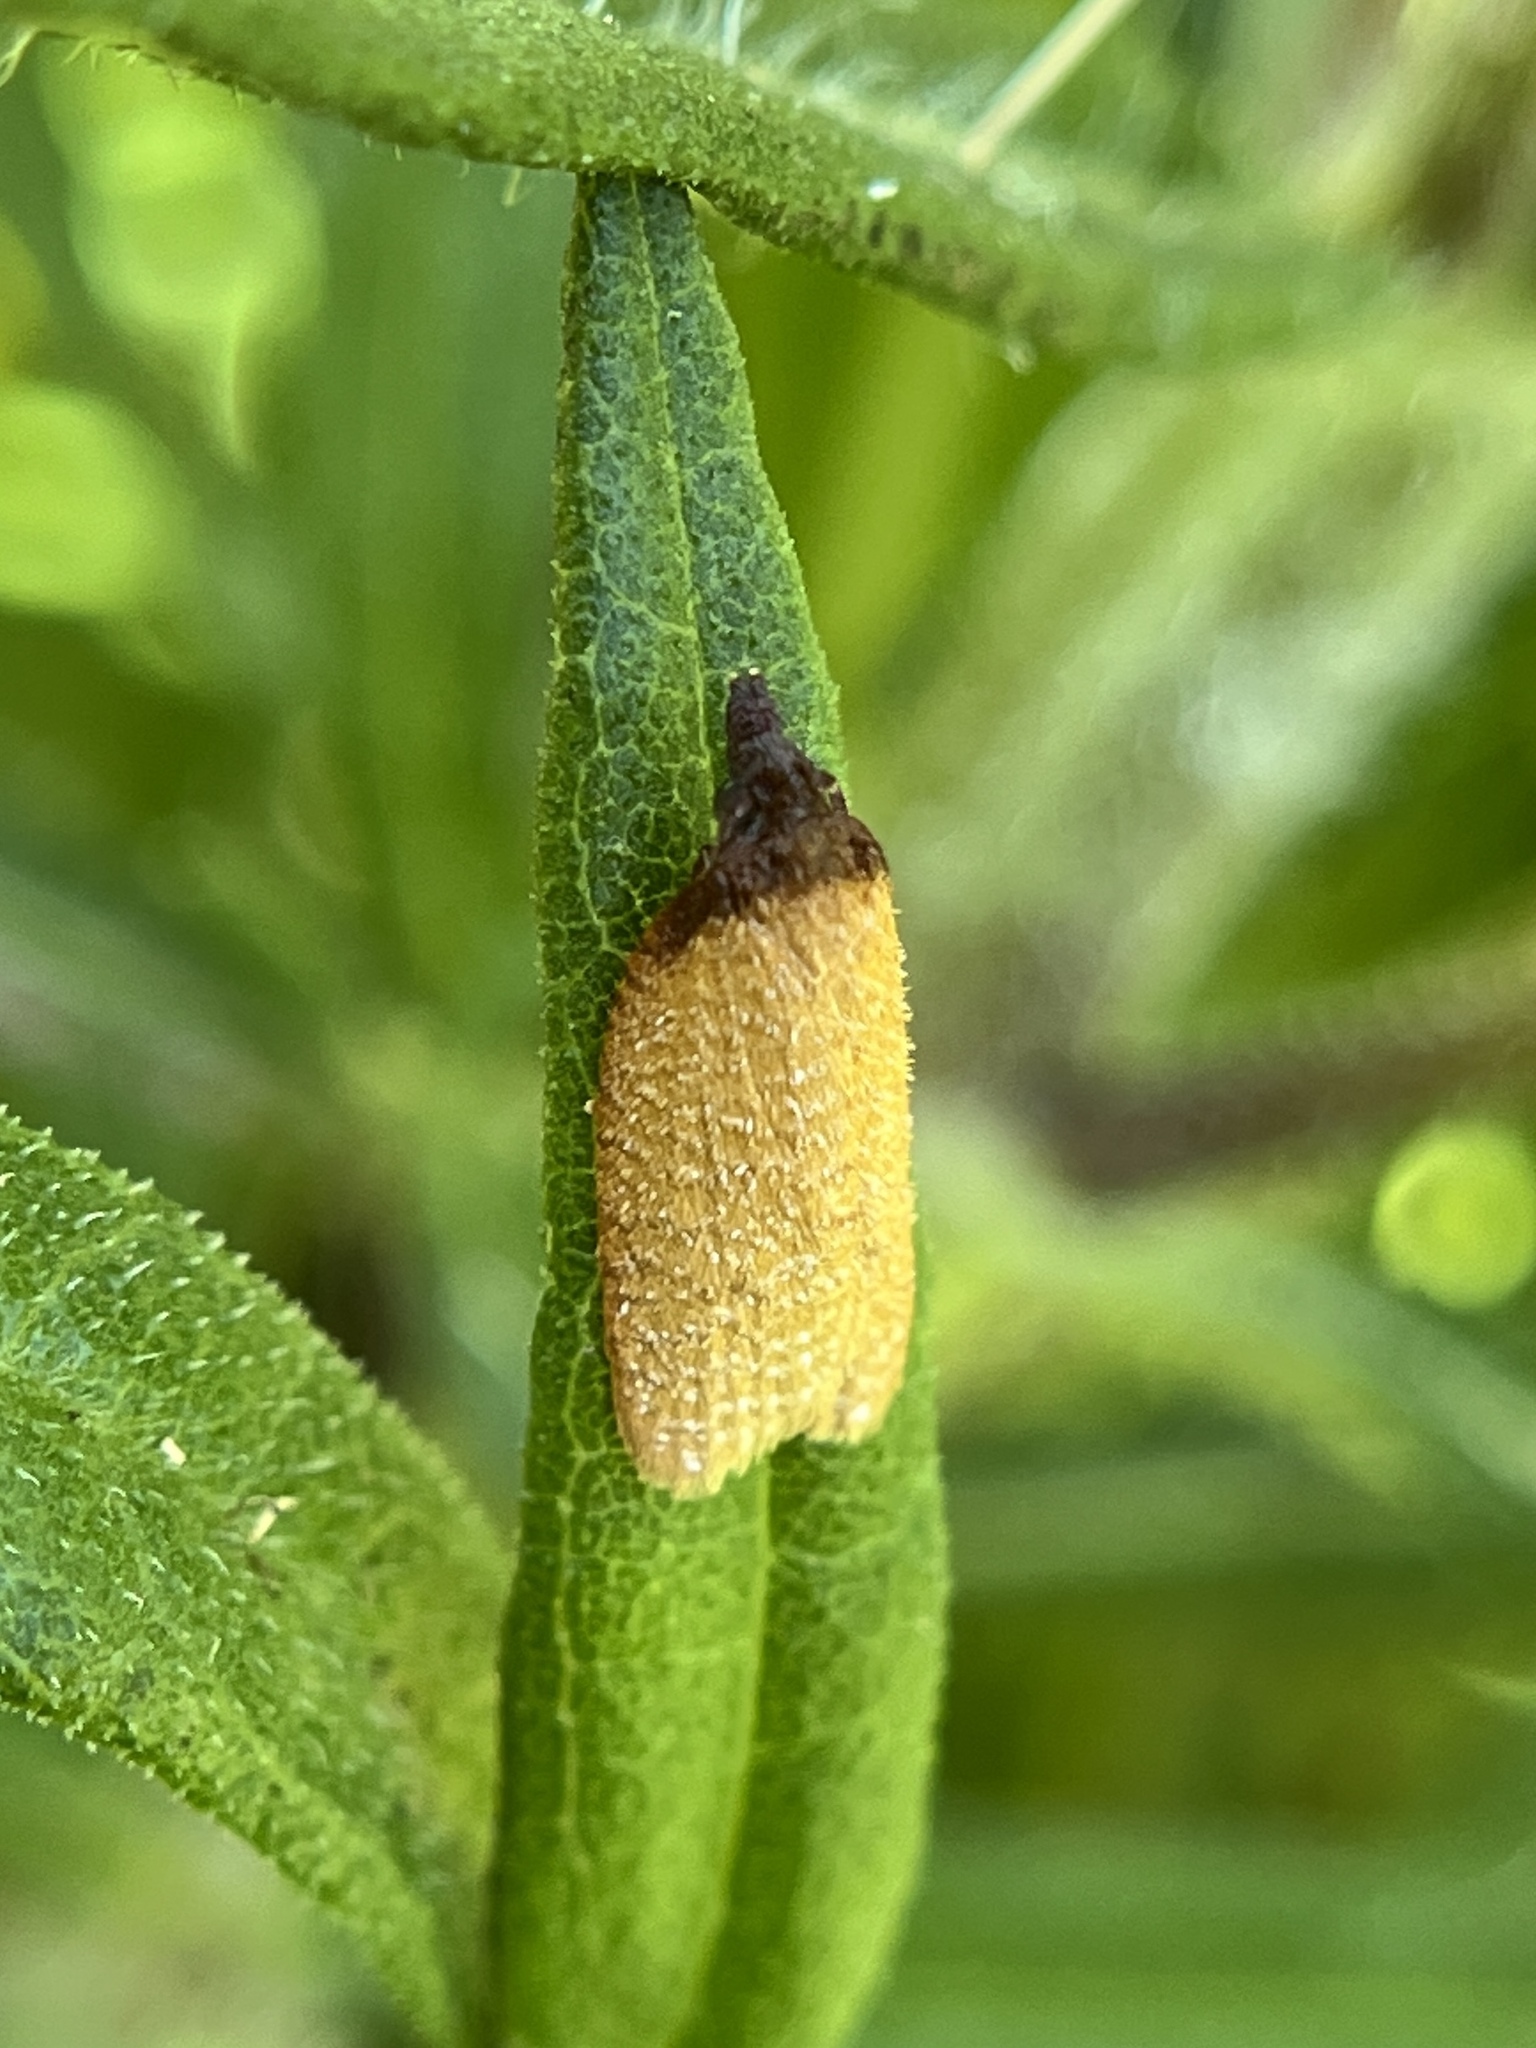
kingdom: Animalia
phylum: Arthropoda
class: Insecta
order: Lepidoptera
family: Tortricidae
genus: Sparganothis
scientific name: Sparganothis distincta
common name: Distinct sparganothis moth
